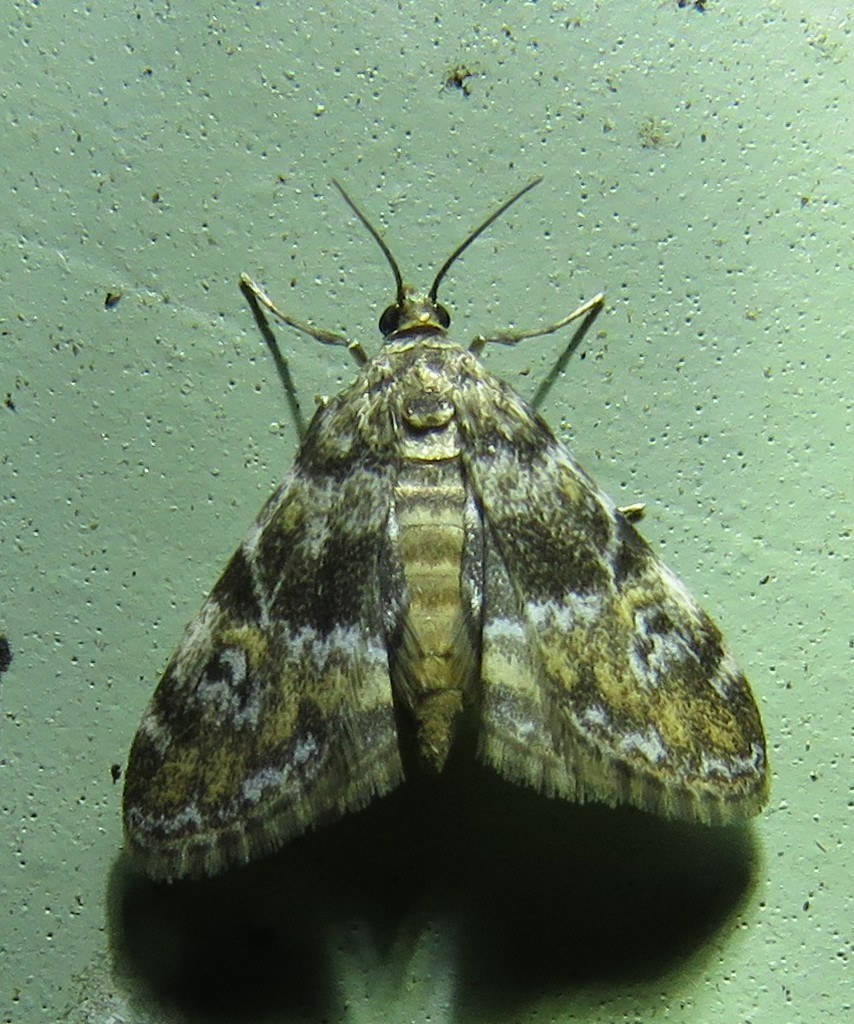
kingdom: Animalia
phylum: Arthropoda
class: Insecta
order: Lepidoptera
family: Crambidae
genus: Elophila
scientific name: Elophila obliteralis
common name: Waterlily leafcutter moth
